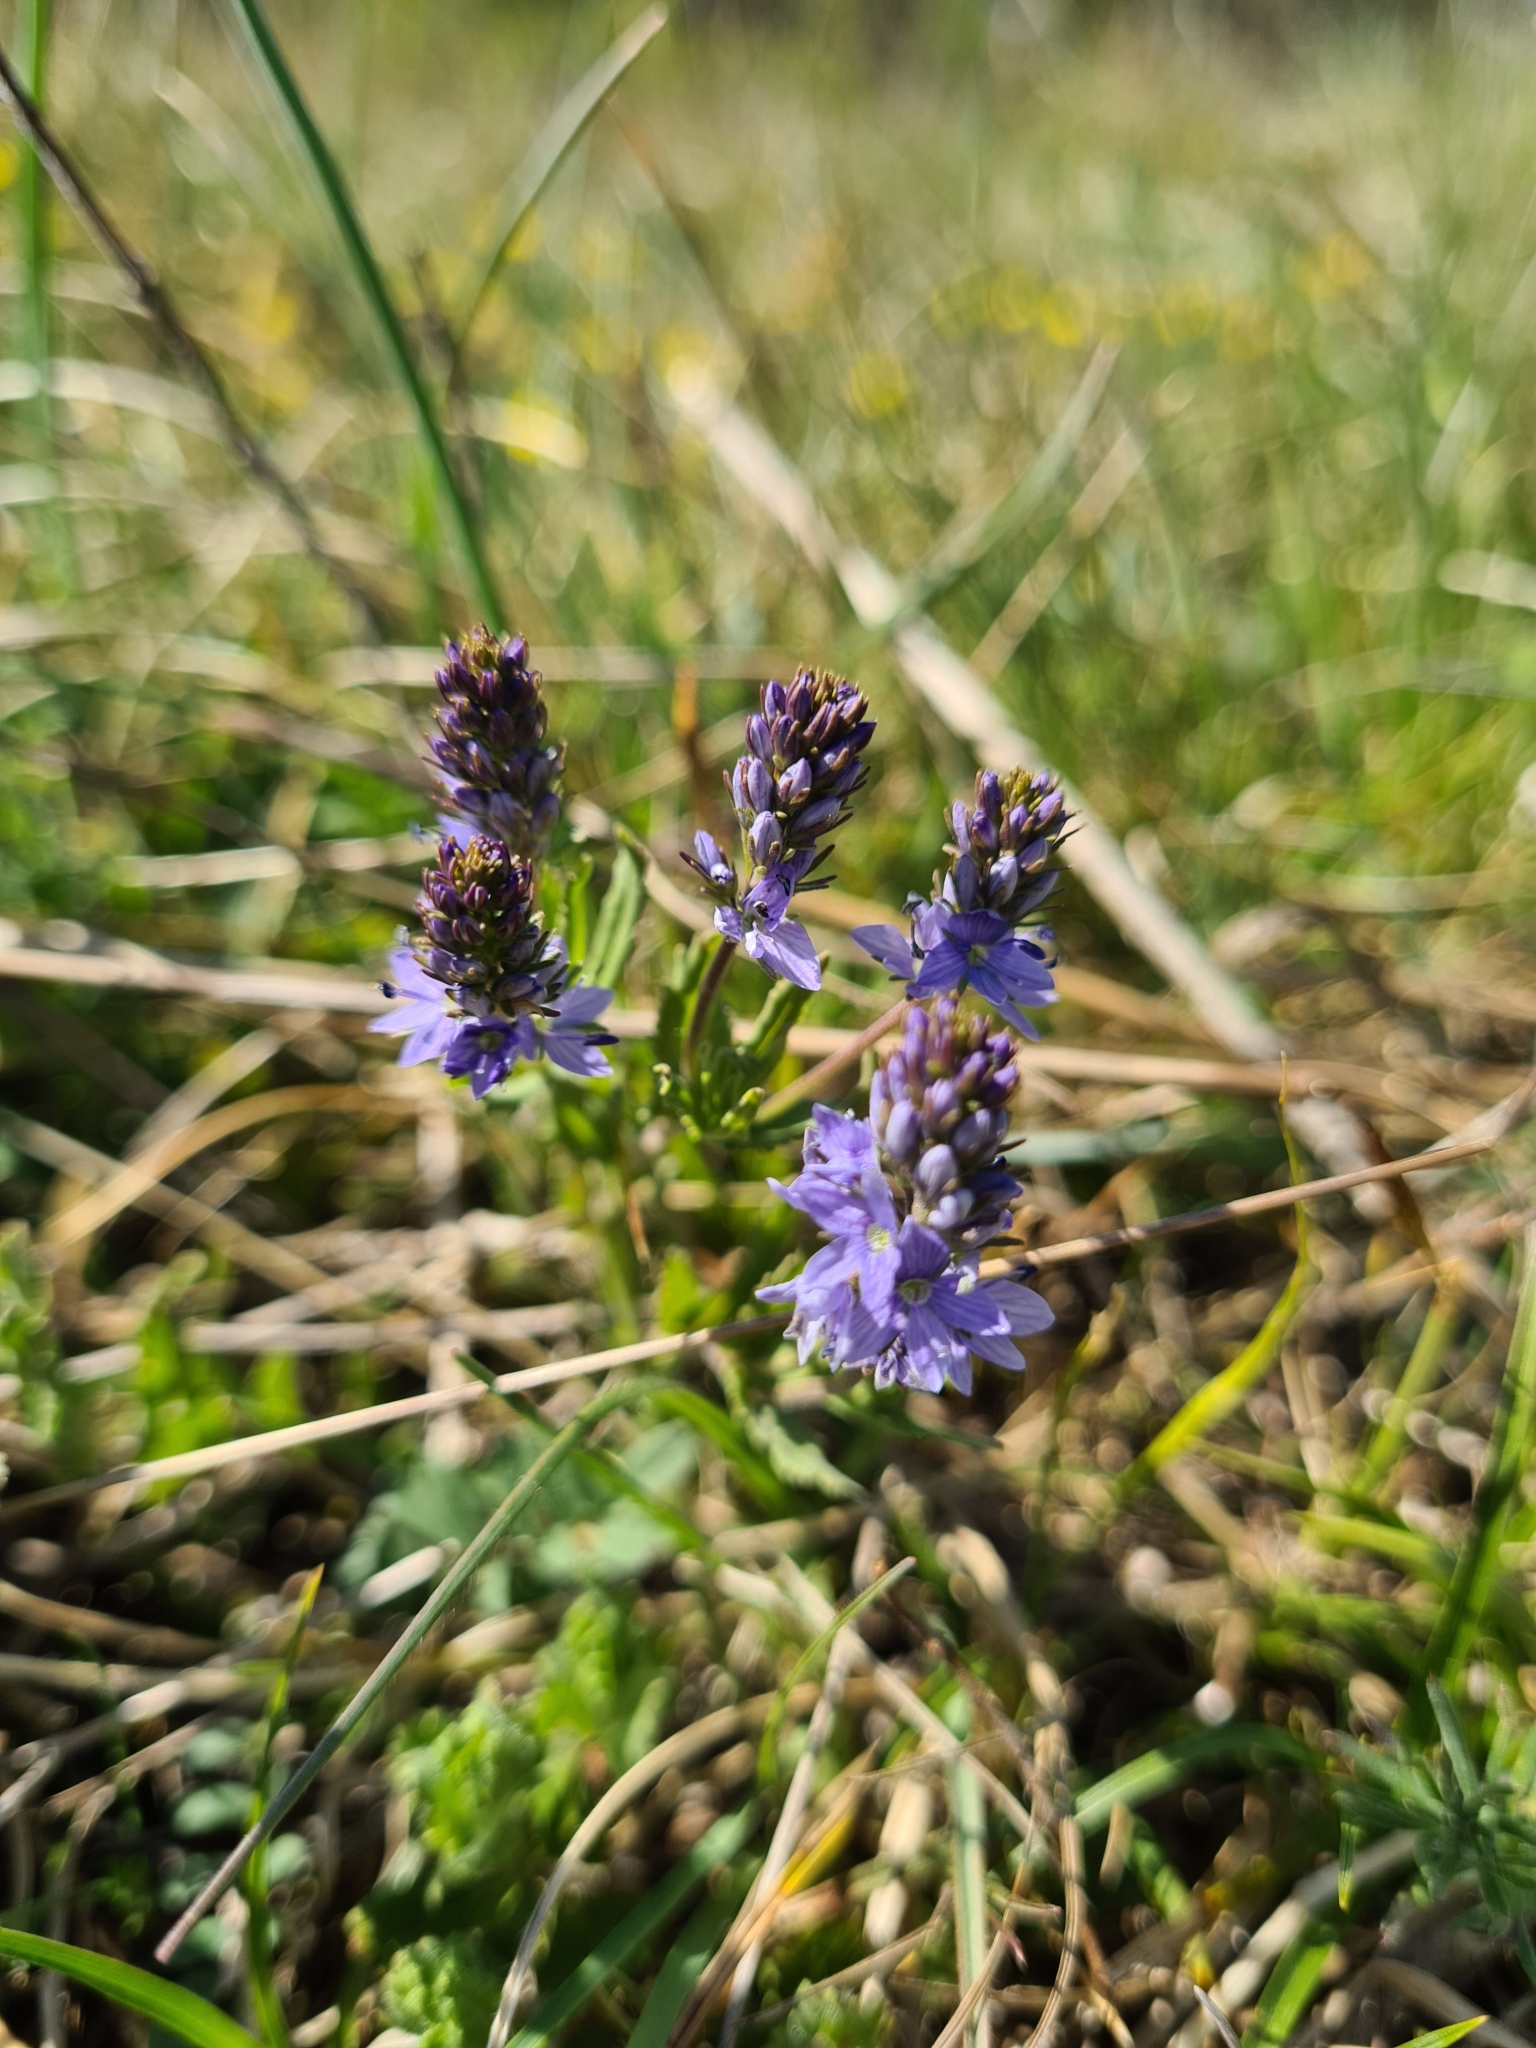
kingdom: Plantae
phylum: Tracheophyta
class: Magnoliopsida
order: Lamiales
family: Plantaginaceae
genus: Veronica
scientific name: Veronica prostrata
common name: Prostrate speedwell
